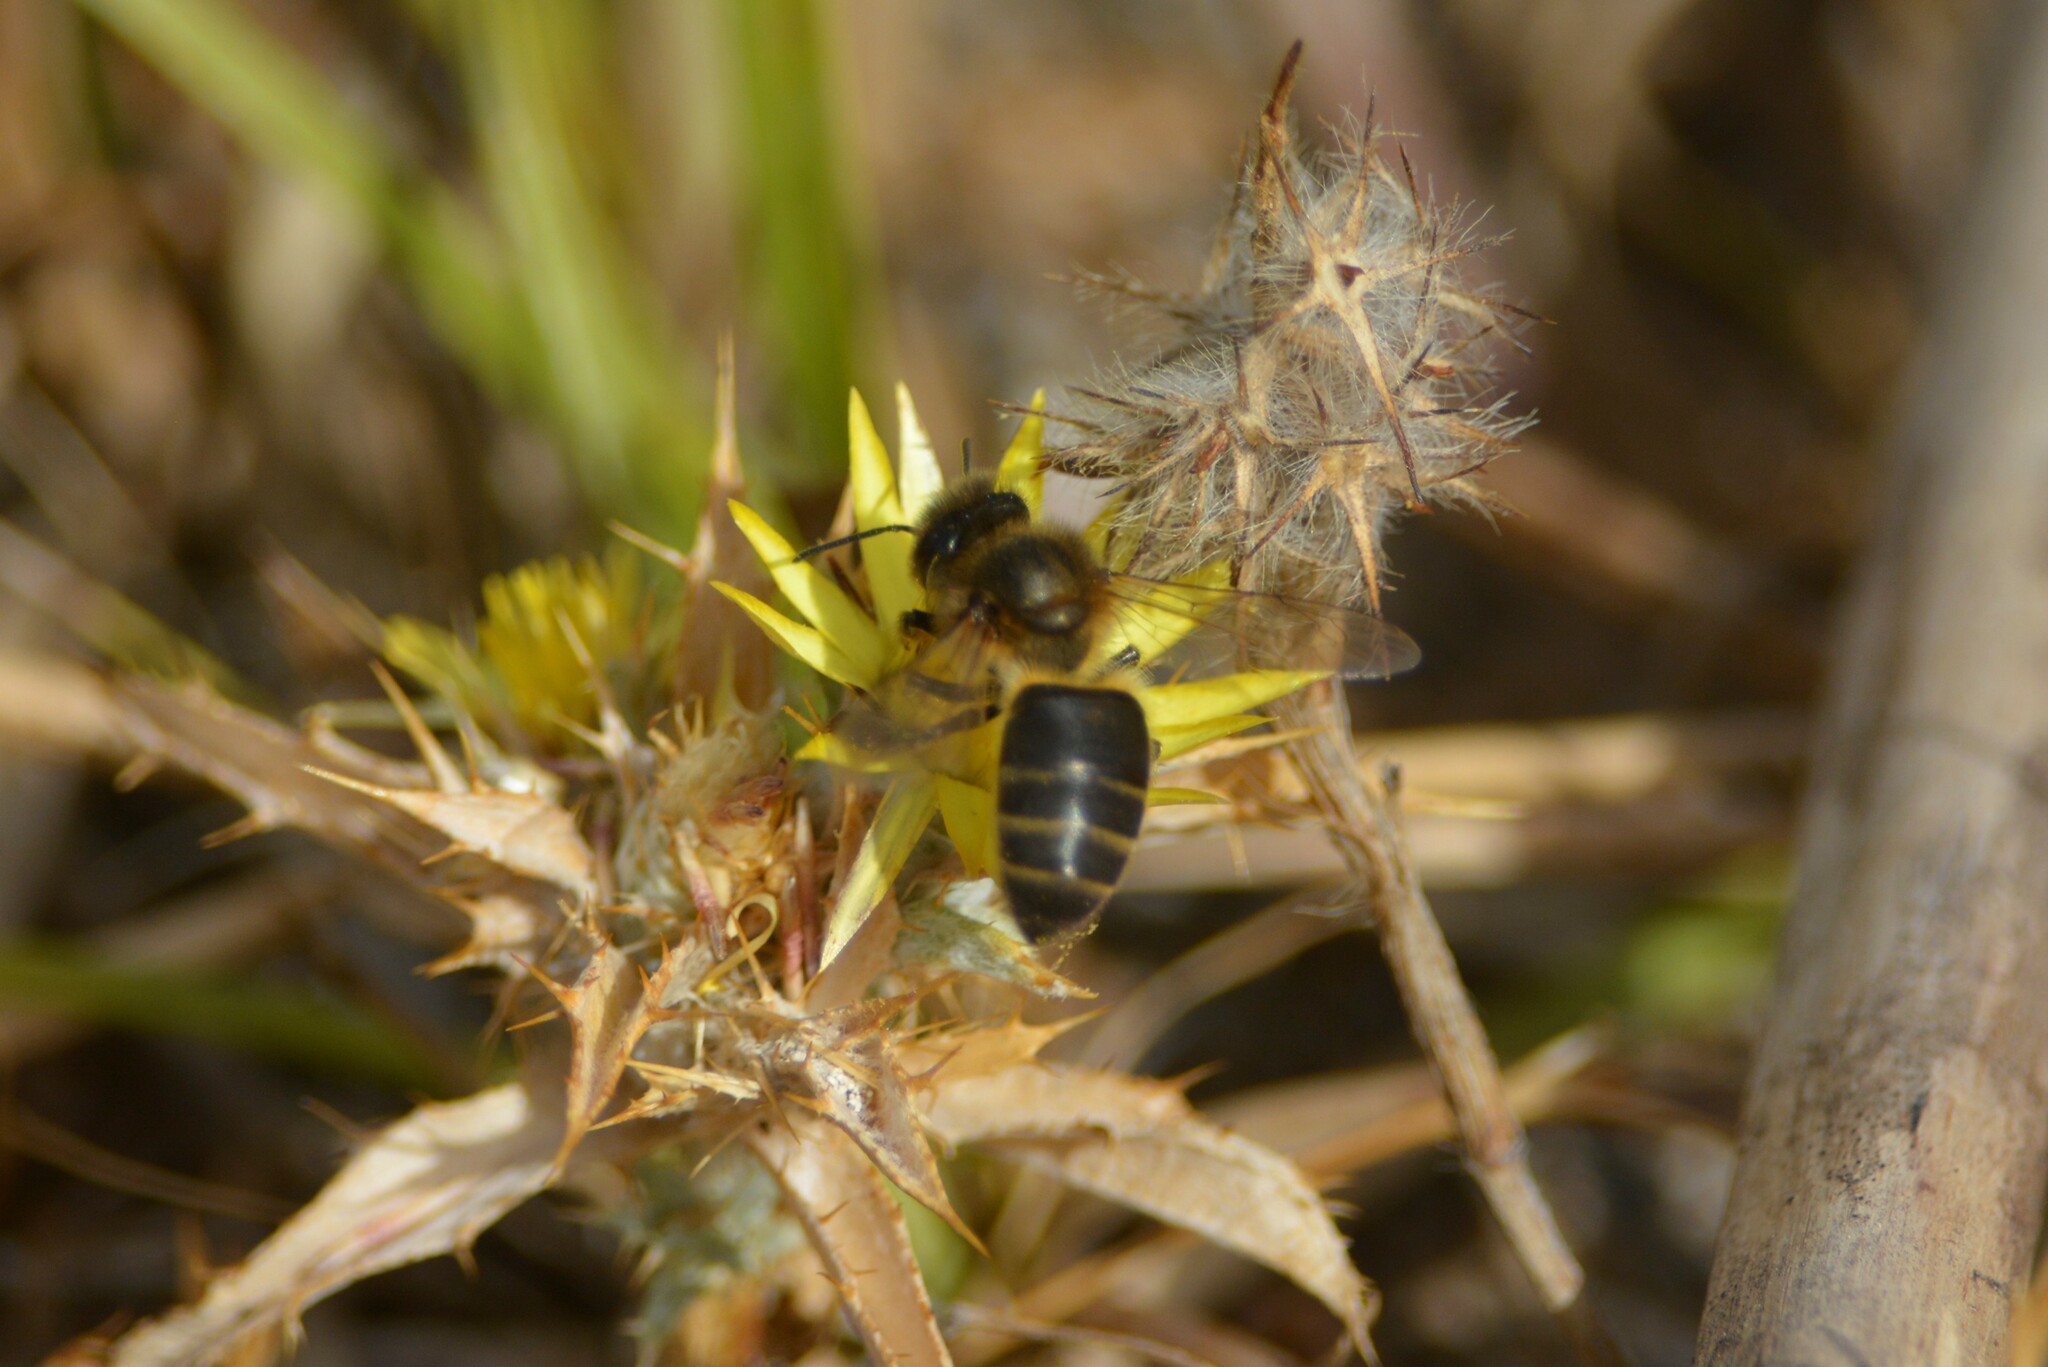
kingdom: Animalia
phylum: Arthropoda
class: Insecta
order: Hymenoptera
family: Apidae
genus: Apis
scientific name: Apis mellifera
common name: Honey bee
